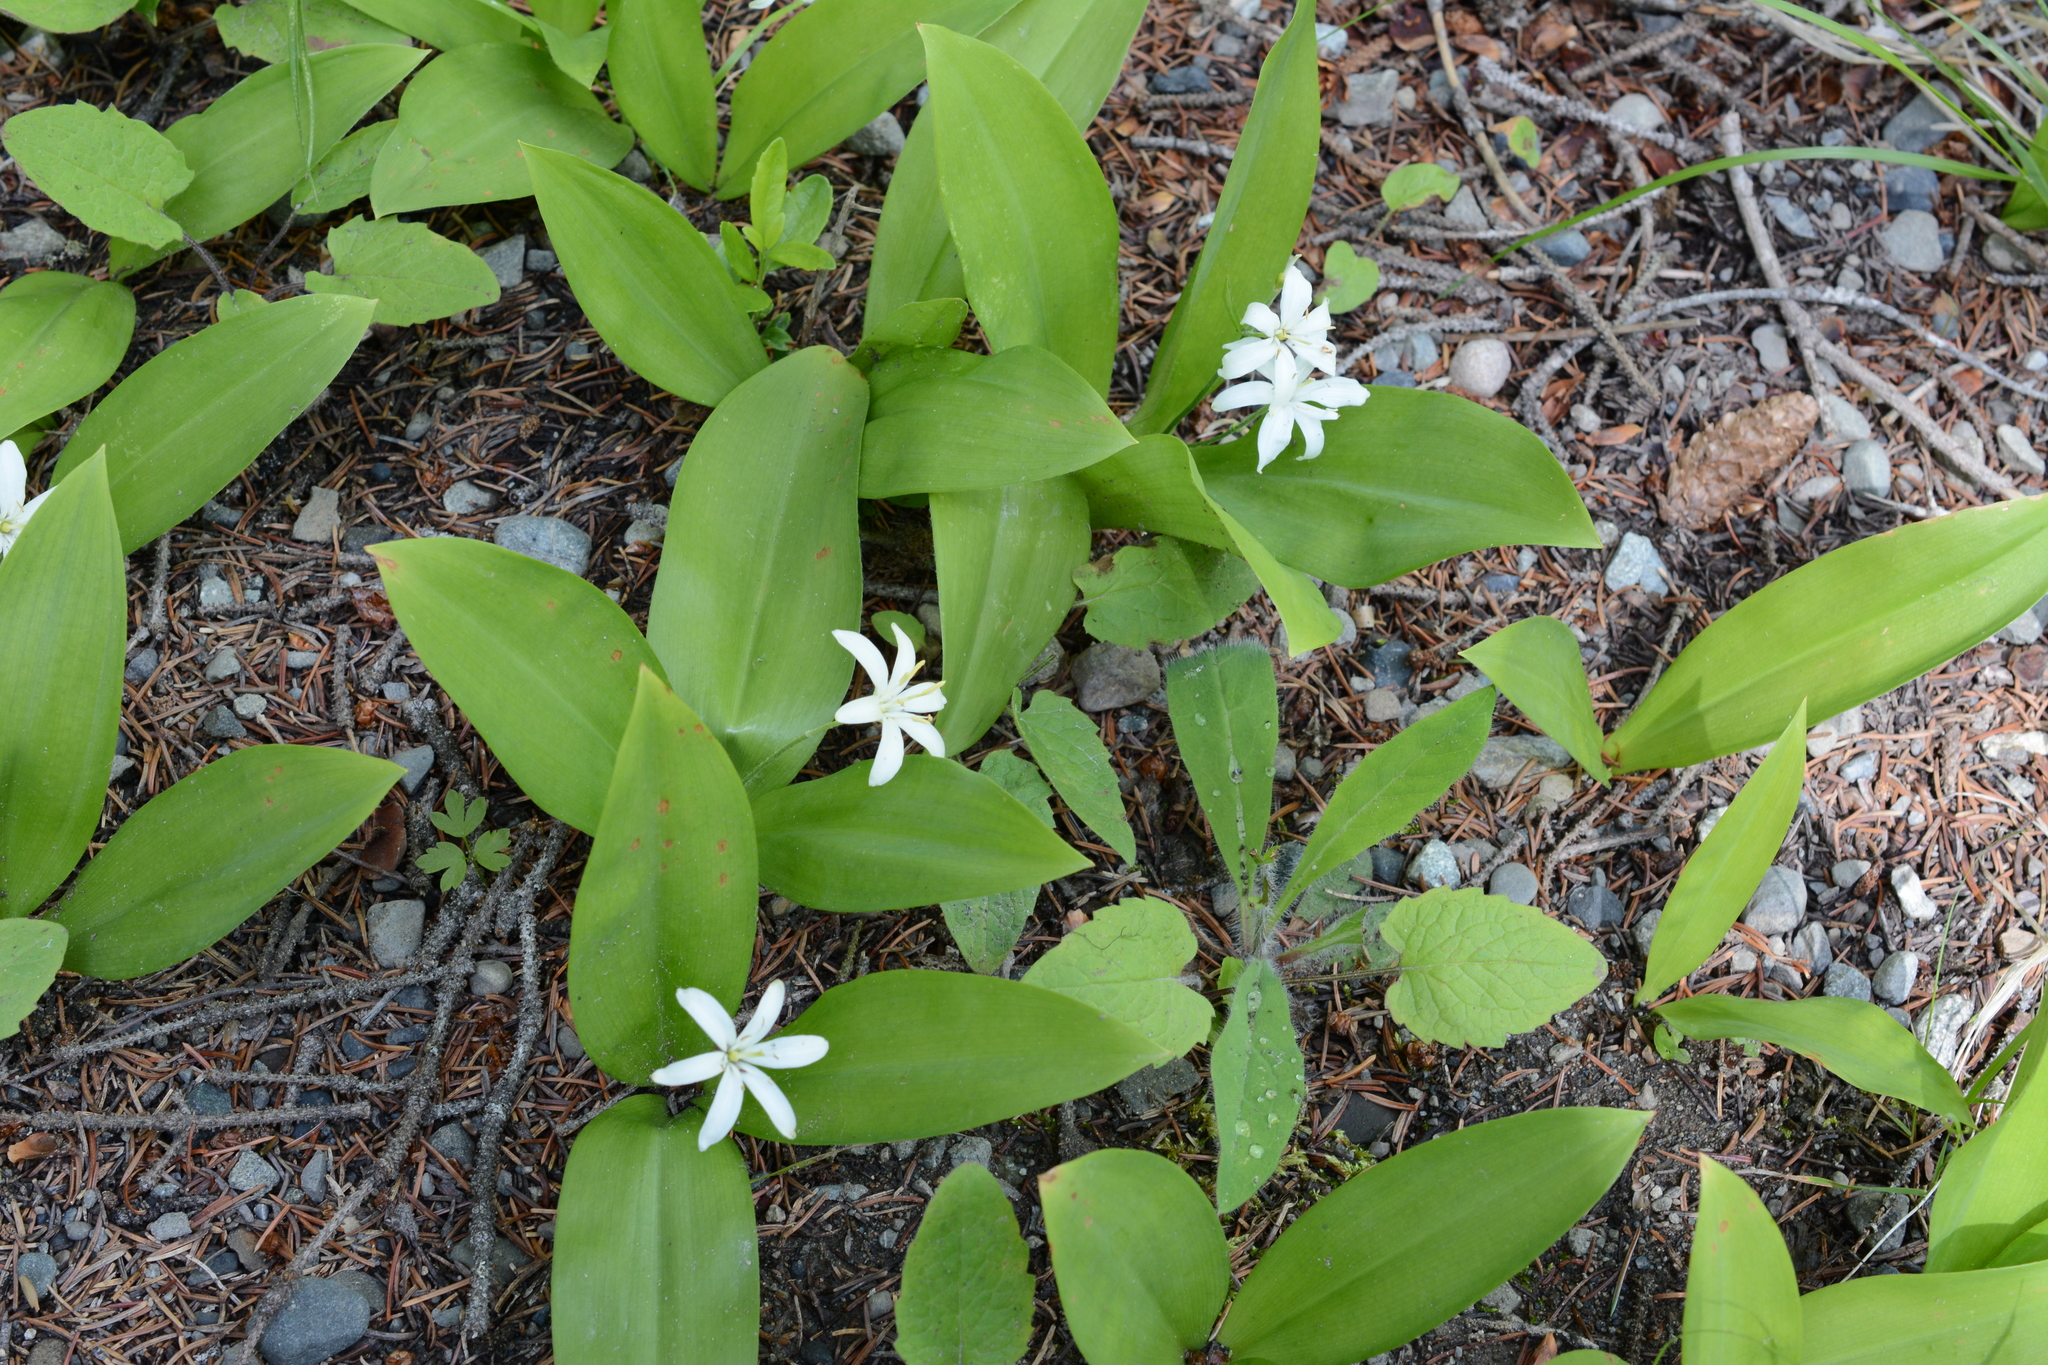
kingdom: Plantae
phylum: Tracheophyta
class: Liliopsida
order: Liliales
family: Liliaceae
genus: Clintonia
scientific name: Clintonia uniflora
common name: Queen's cup
